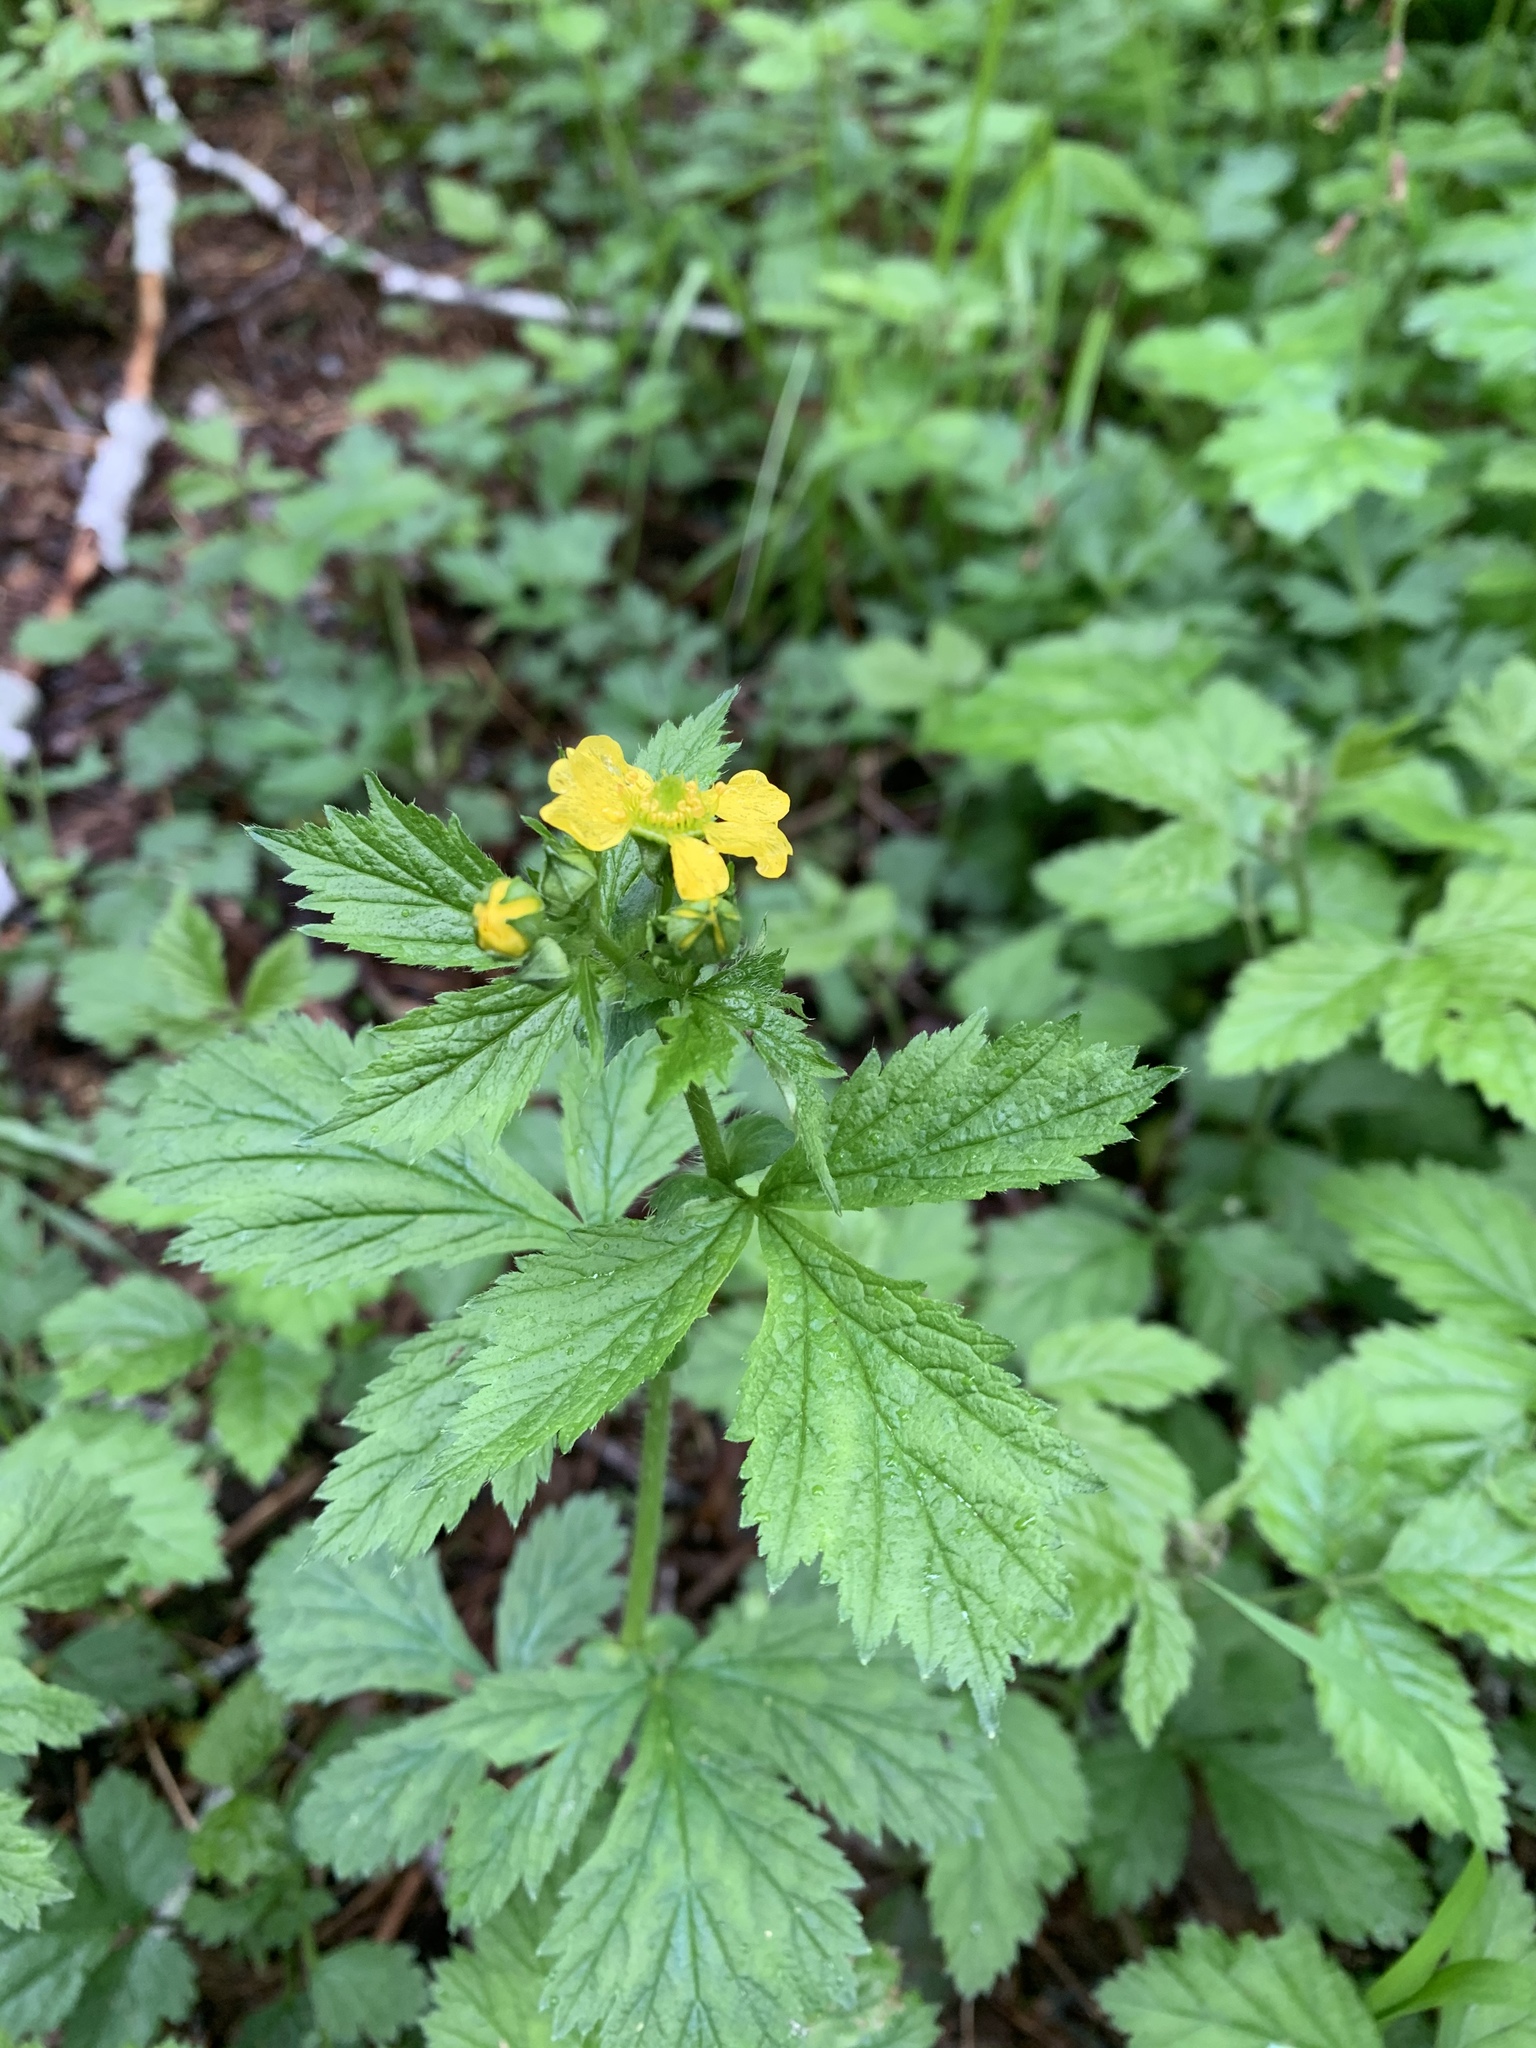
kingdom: Plantae
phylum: Tracheophyta
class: Magnoliopsida
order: Rosales
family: Rosaceae
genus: Geum
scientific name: Geum macrophyllum
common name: Large-leaved avens
